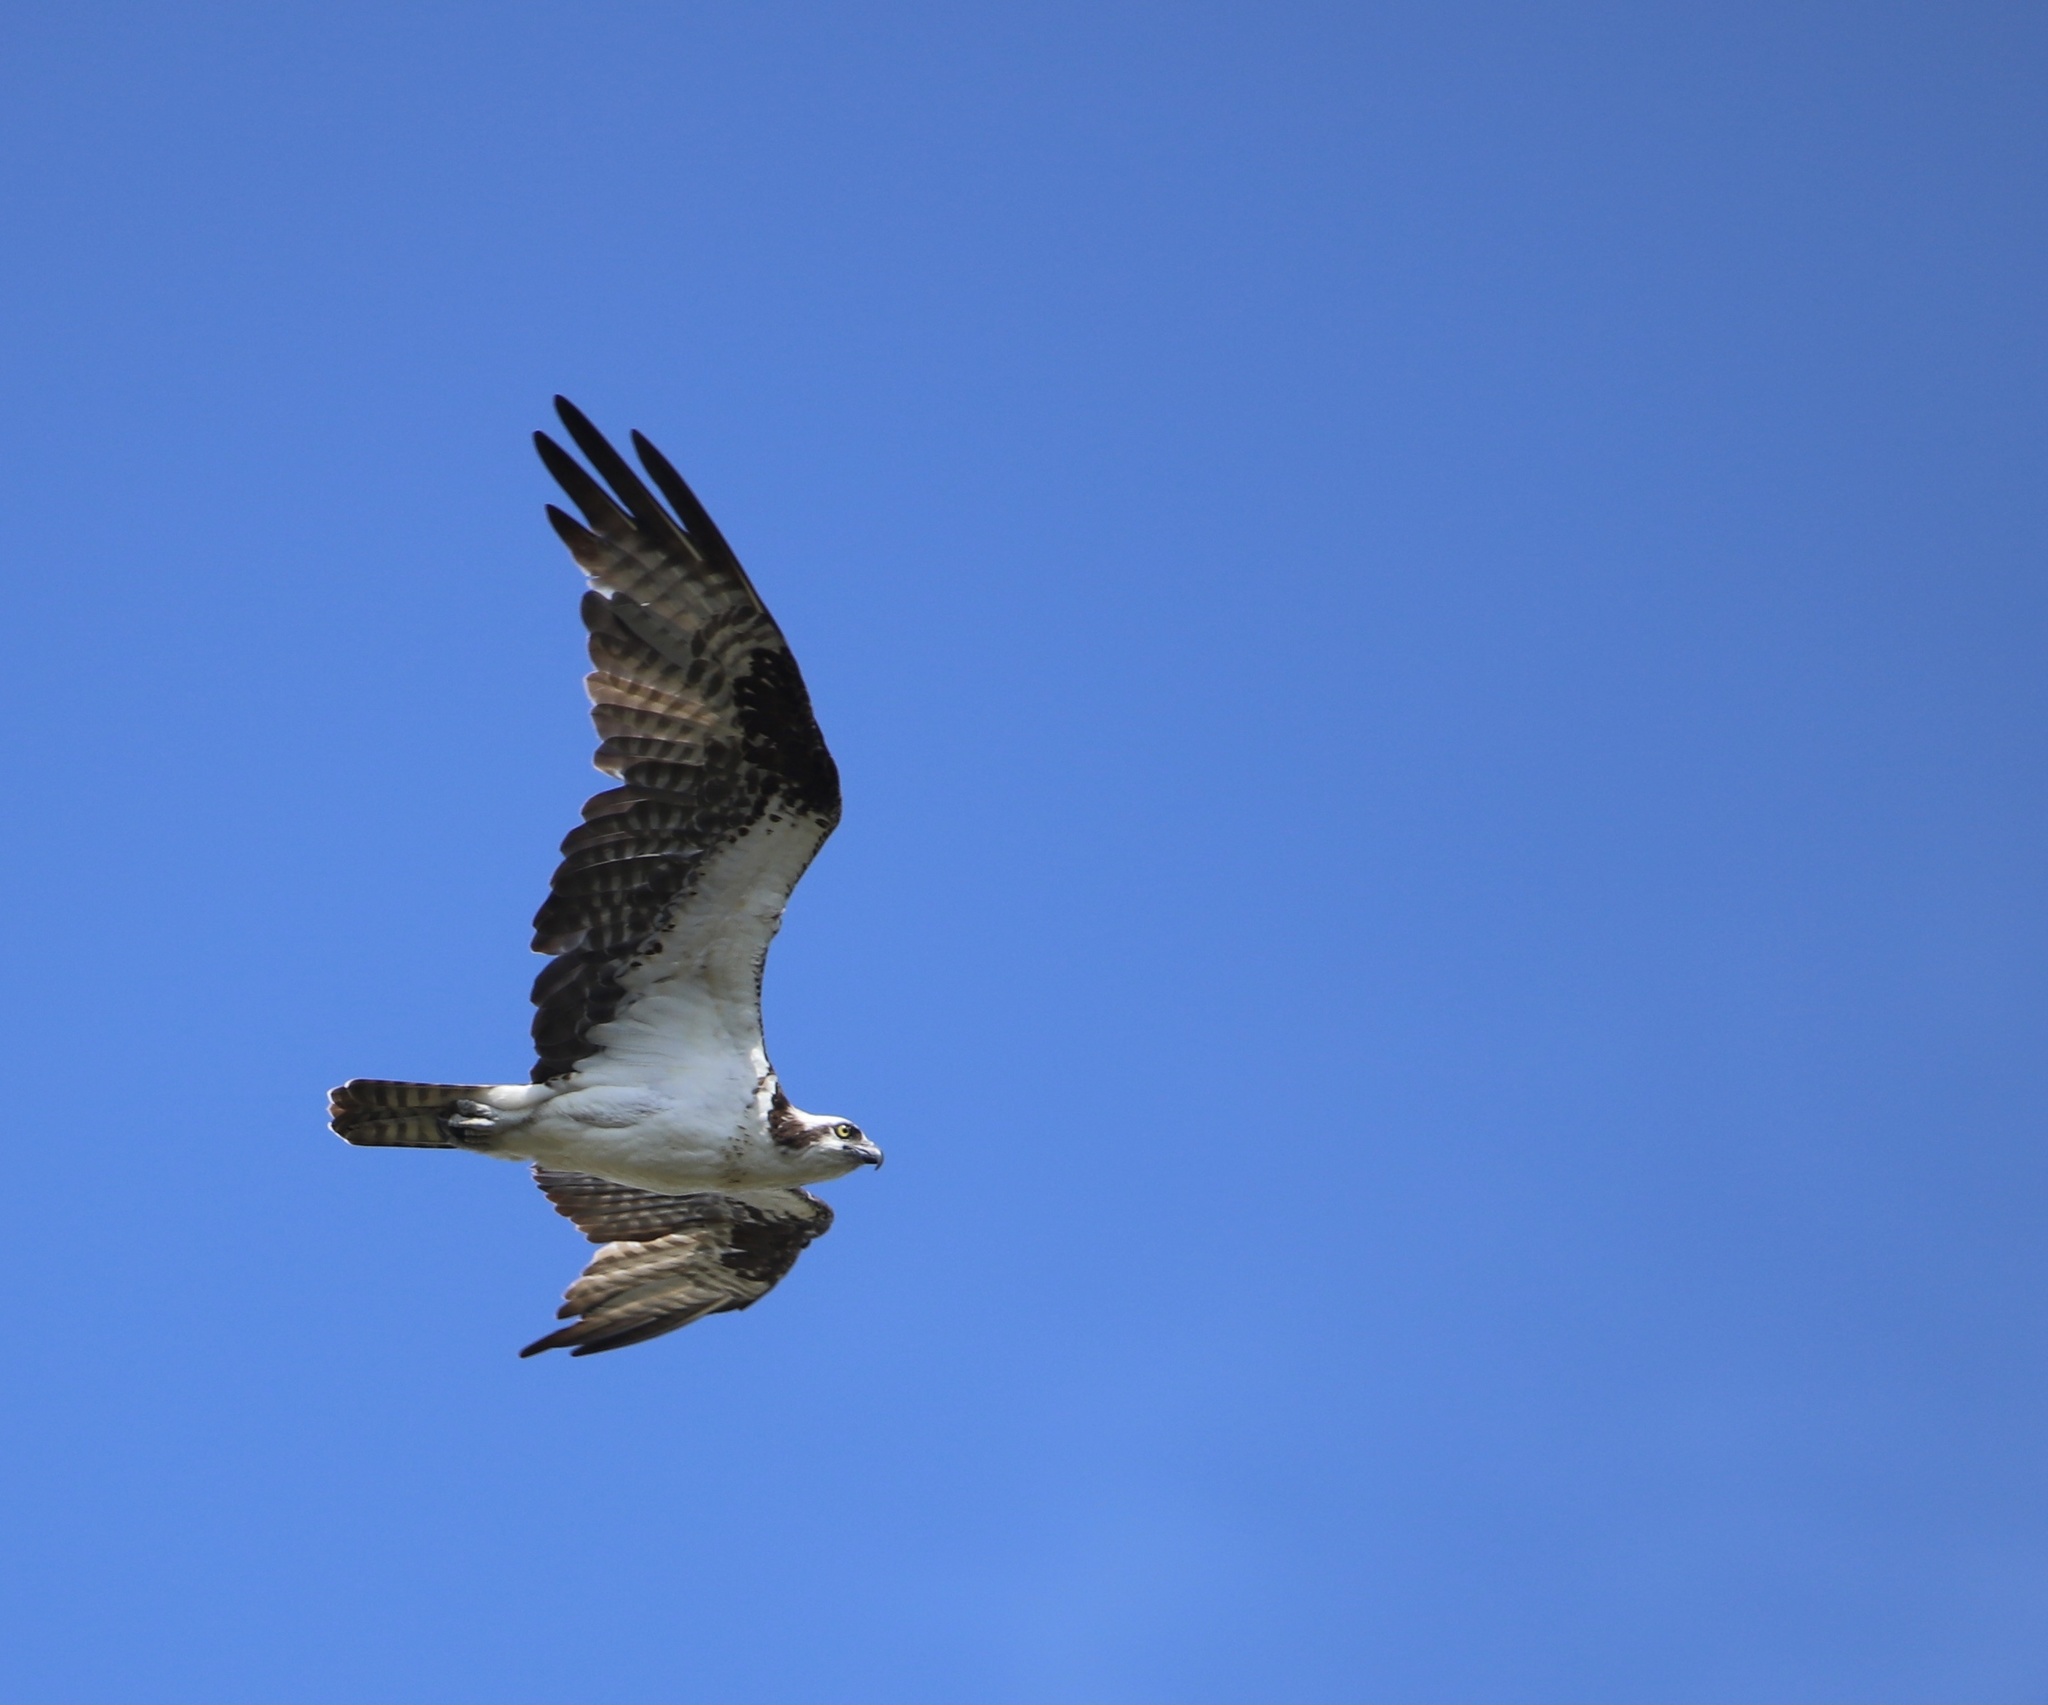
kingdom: Animalia
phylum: Chordata
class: Aves
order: Accipitriformes
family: Pandionidae
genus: Pandion
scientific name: Pandion haliaetus
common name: Osprey
